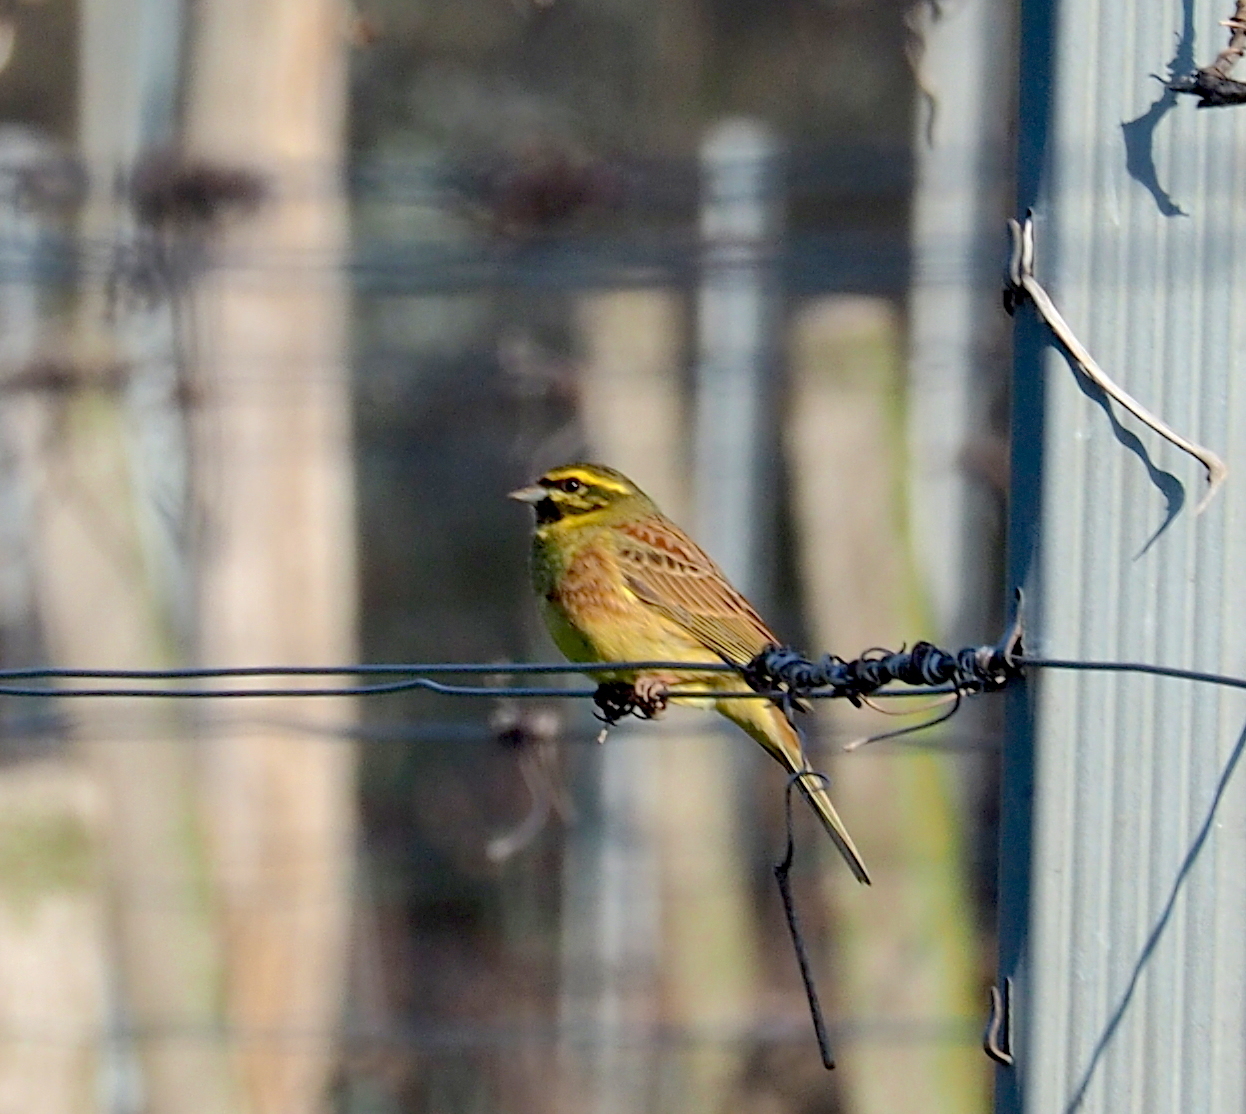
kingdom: Animalia
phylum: Chordata
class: Aves
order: Passeriformes
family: Emberizidae
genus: Emberiza
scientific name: Emberiza cirlus
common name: Cirl bunting
